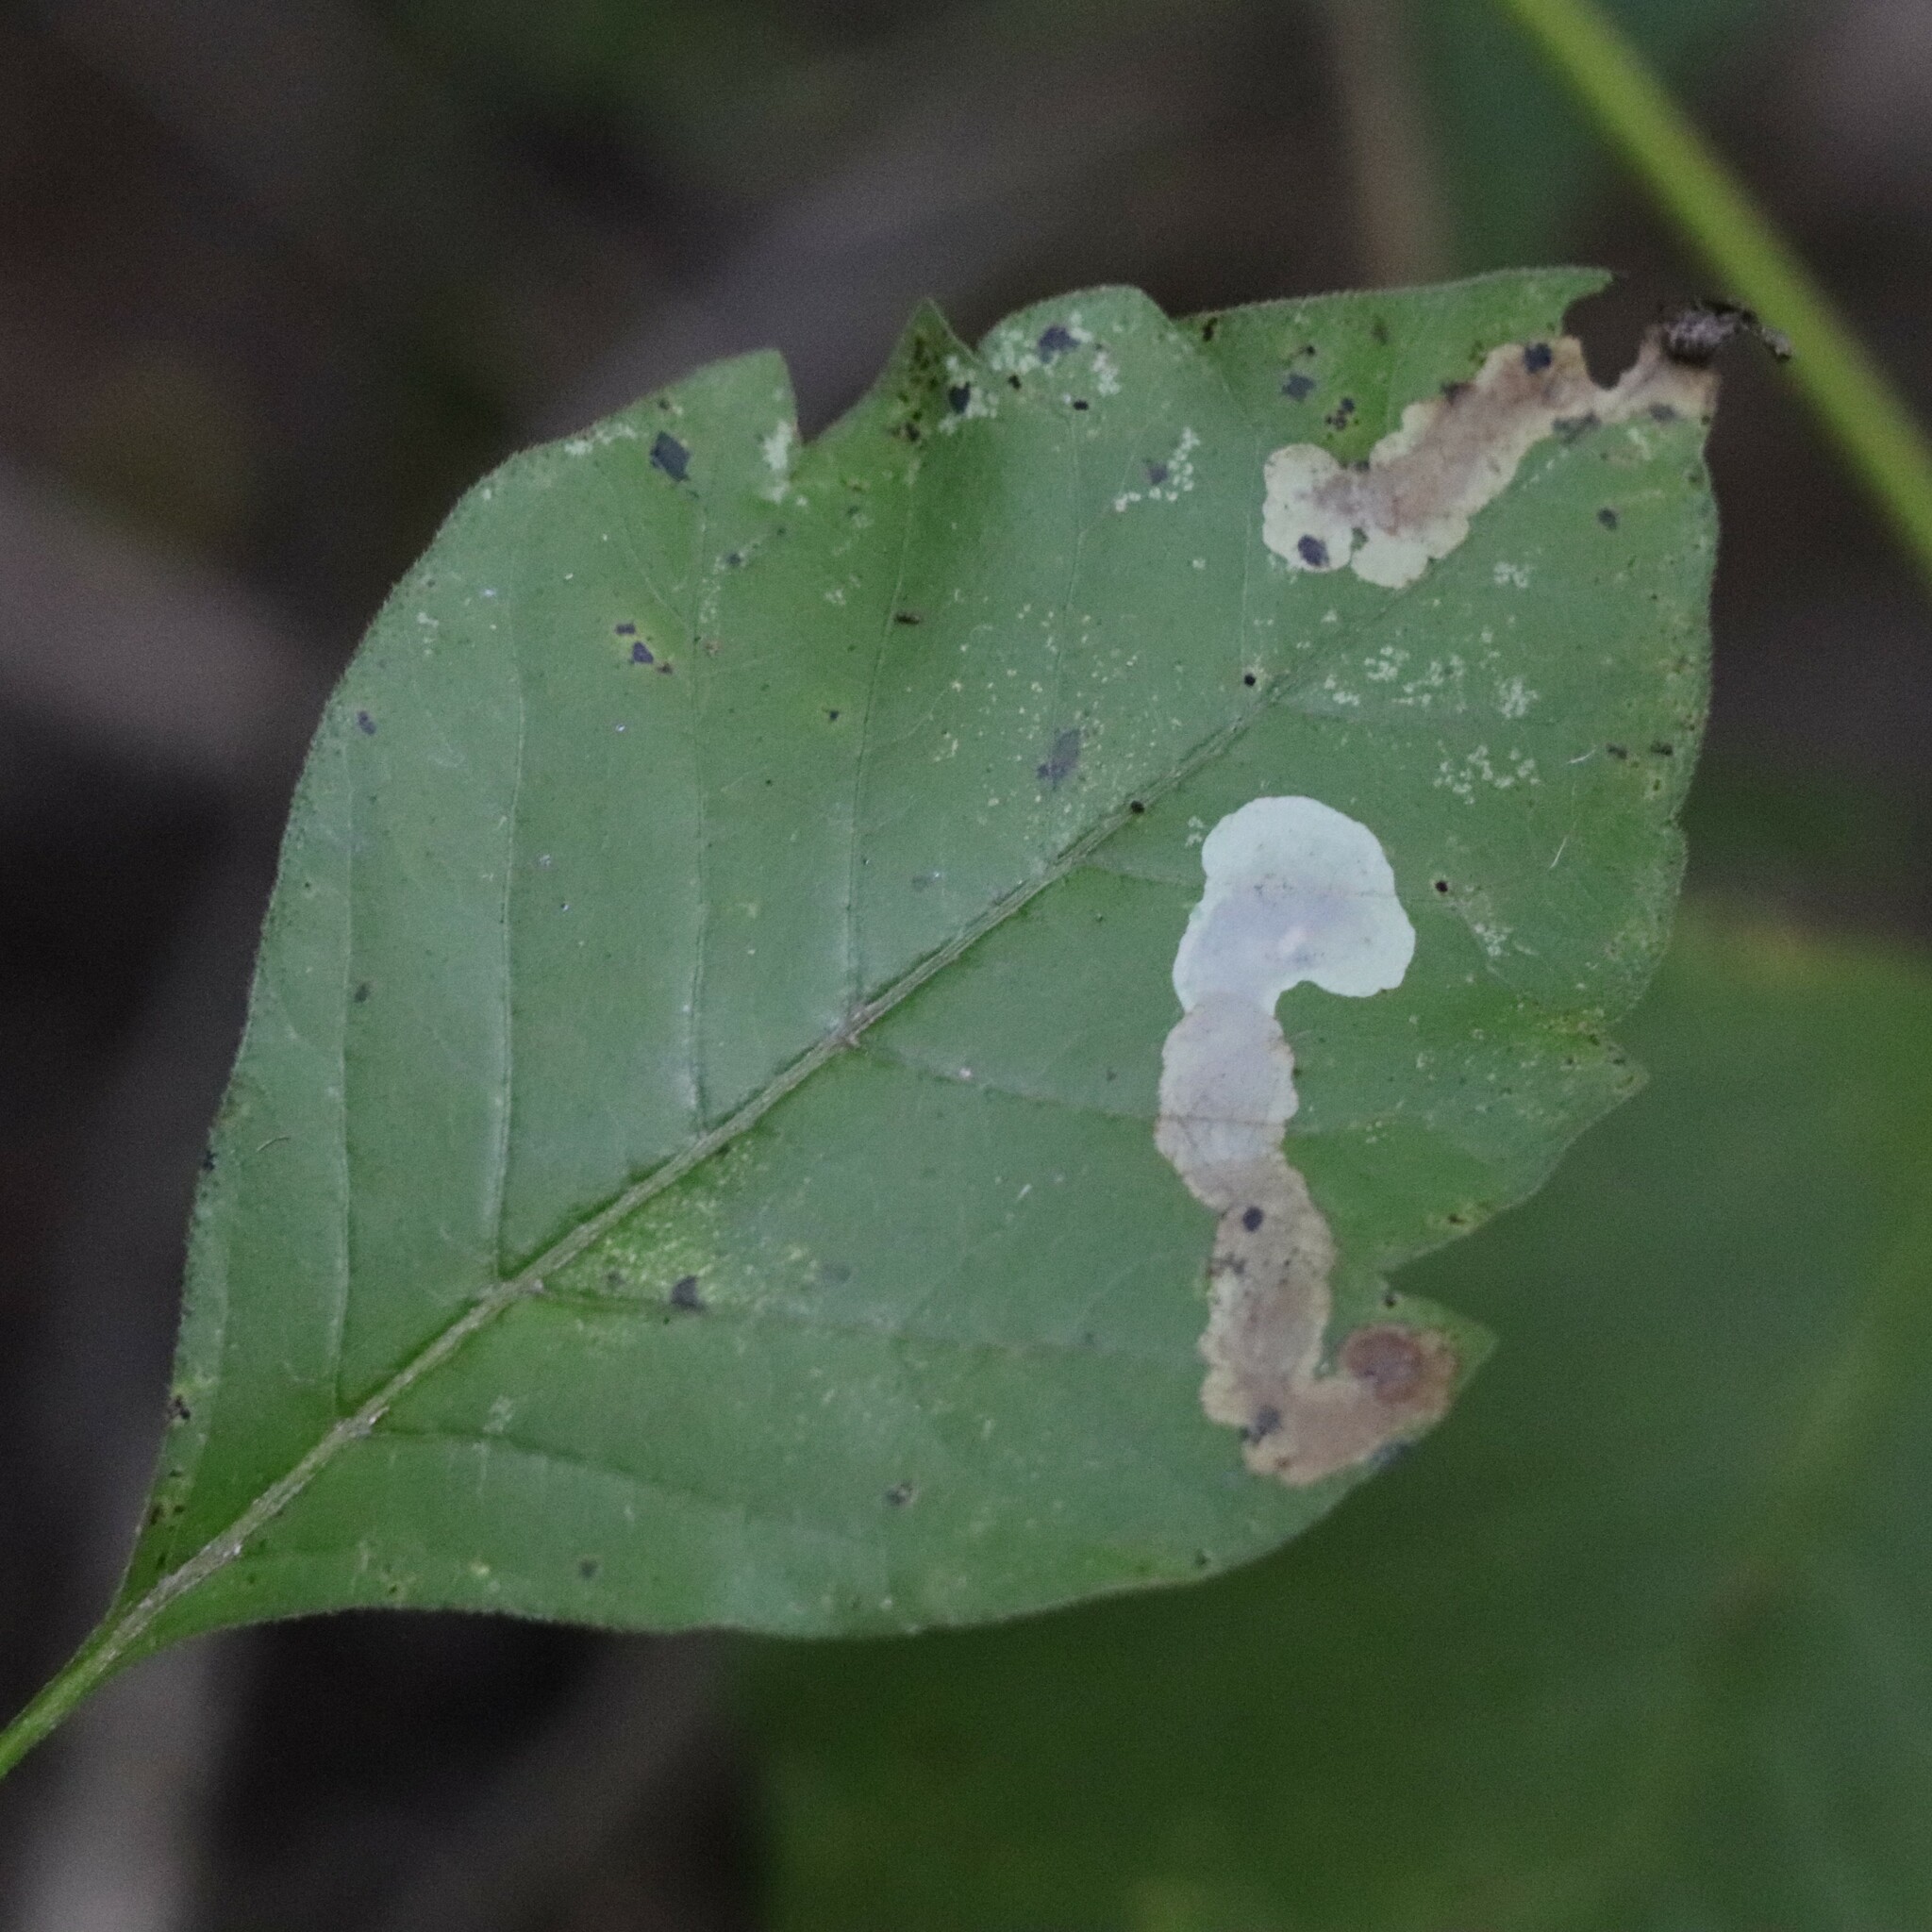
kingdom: Animalia
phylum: Arthropoda
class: Insecta
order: Lepidoptera
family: Gracillariidae
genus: Cameraria
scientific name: Cameraria guttifinitella
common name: Poison ivy leaf-miner moth
